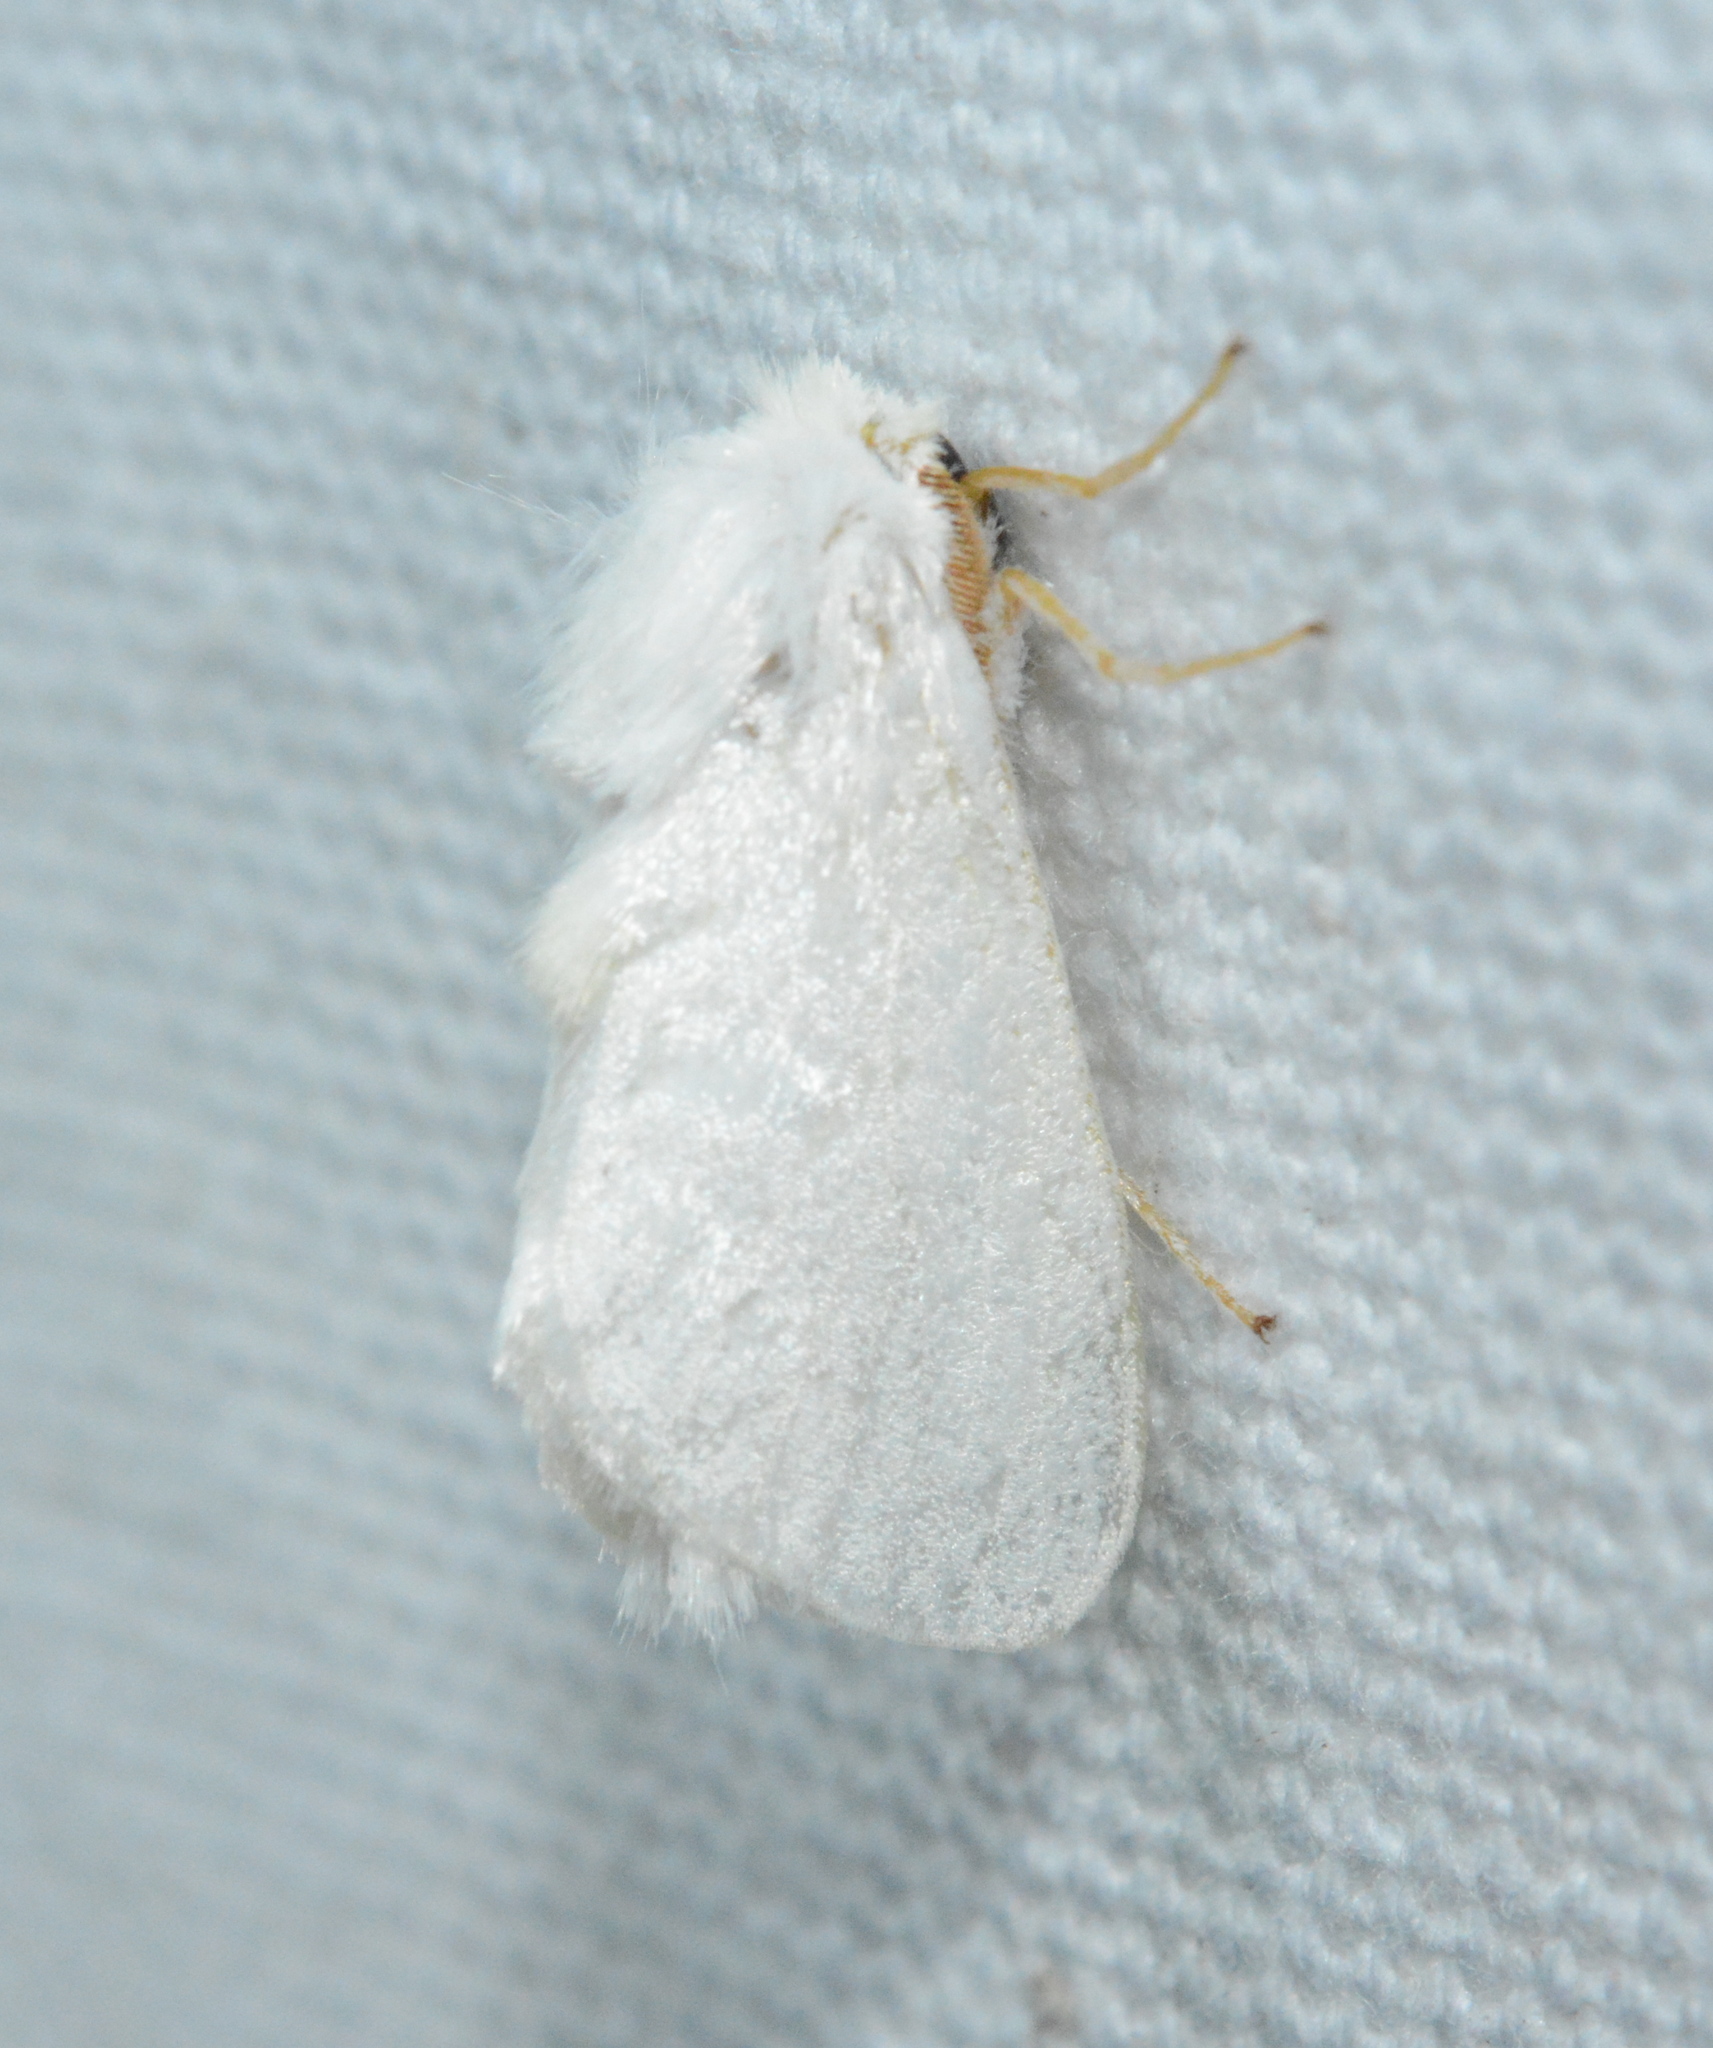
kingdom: Animalia
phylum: Arthropoda
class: Insecta
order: Lepidoptera
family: Megalopygidae
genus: Norape
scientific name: Norape cretata
